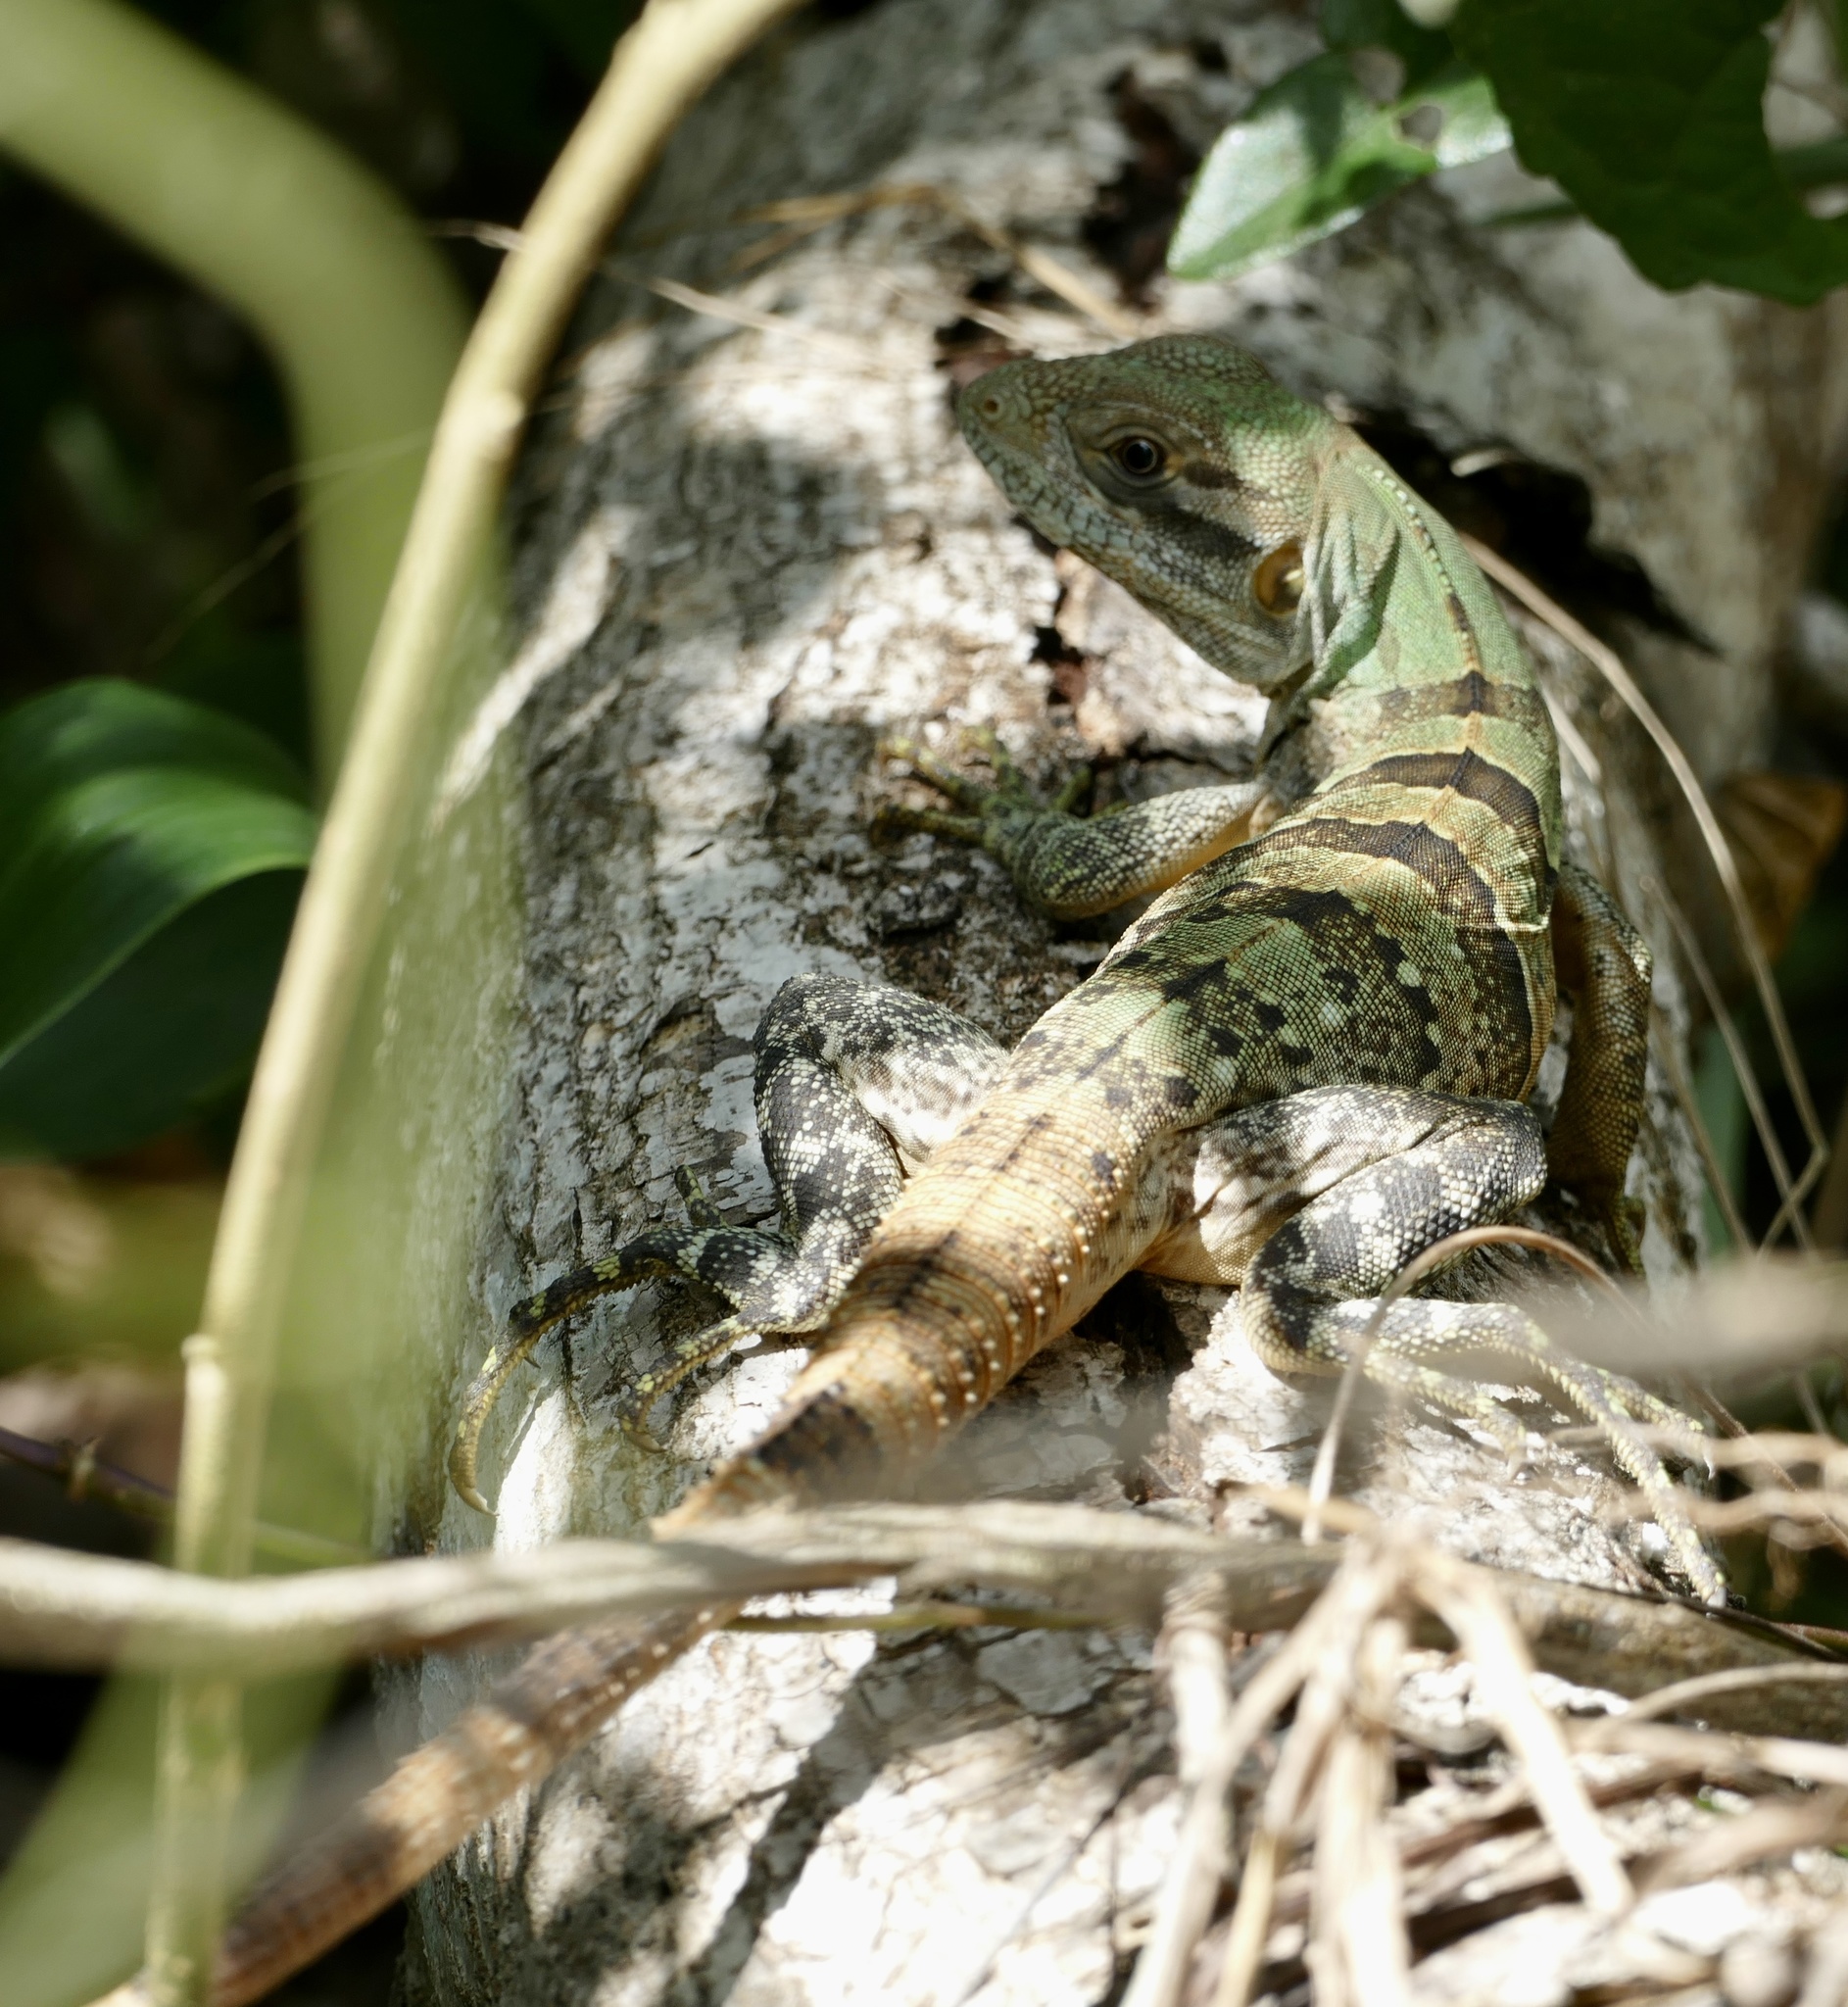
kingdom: Animalia
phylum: Chordata
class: Squamata
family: Iguanidae
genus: Ctenosaura
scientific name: Ctenosaura similis
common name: Black spiny-tailed iguana
